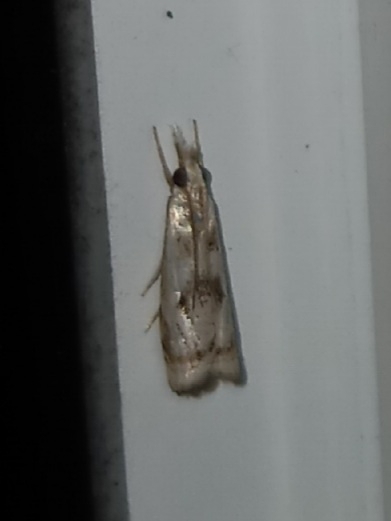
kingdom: Animalia
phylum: Arthropoda
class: Insecta
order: Lepidoptera
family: Crambidae
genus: Microcrambus
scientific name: Microcrambus elegans
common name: Elegant grass-veneer
